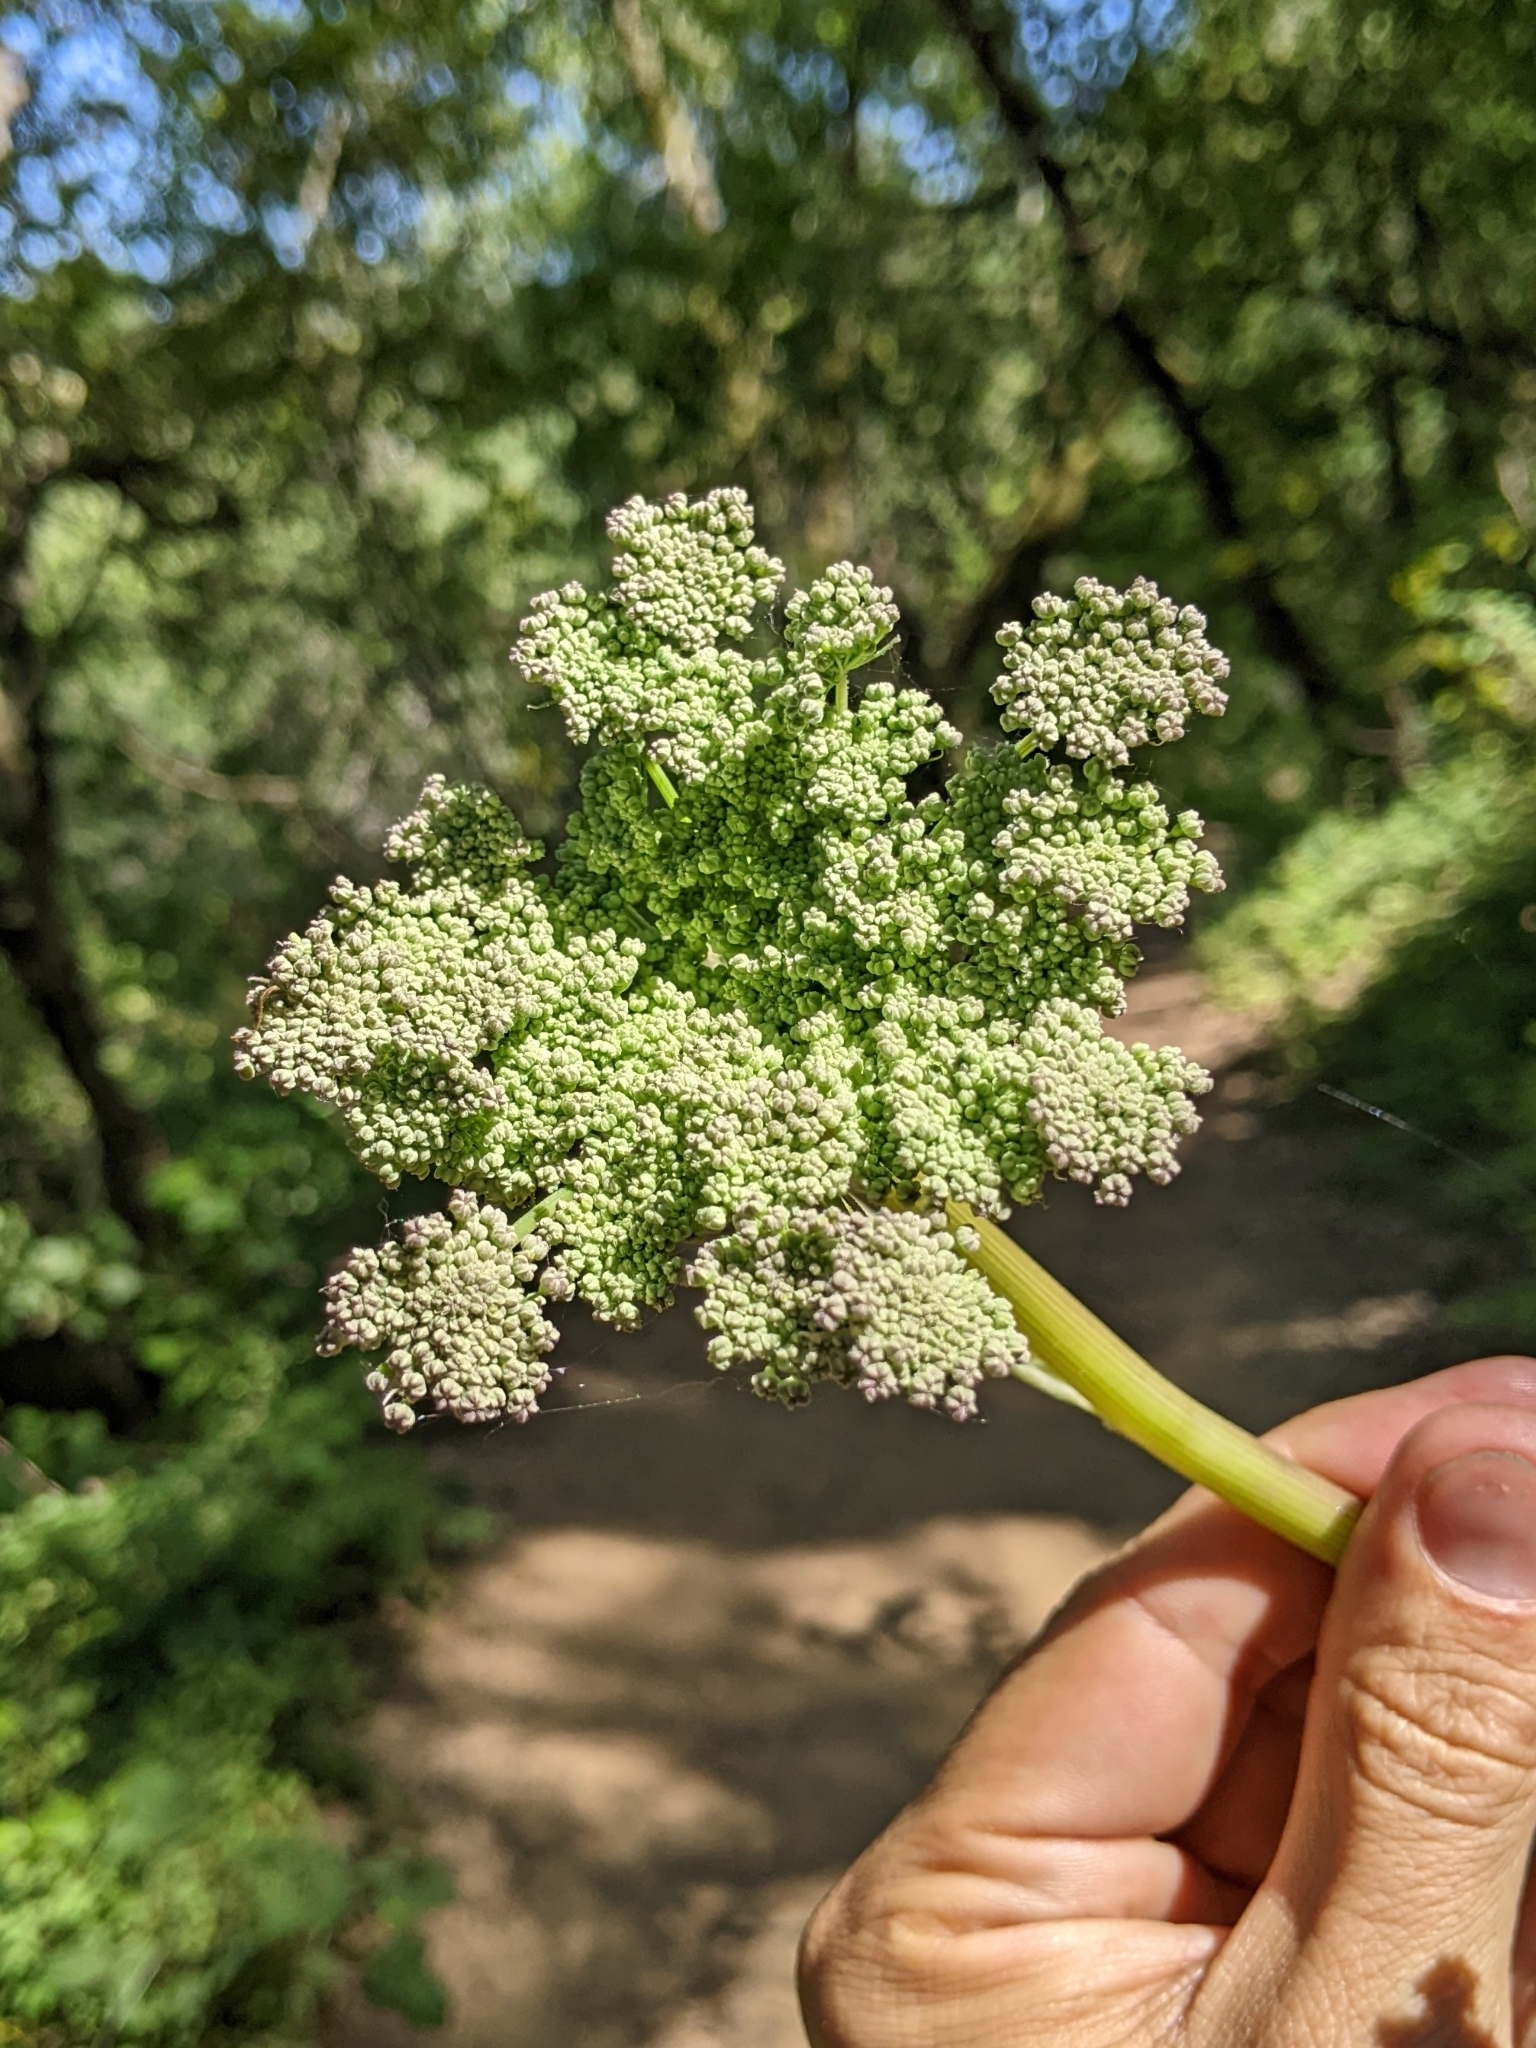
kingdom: Plantae
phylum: Tracheophyta
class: Magnoliopsida
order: Apiales
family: Apiaceae
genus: Angelica
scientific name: Angelica californica
